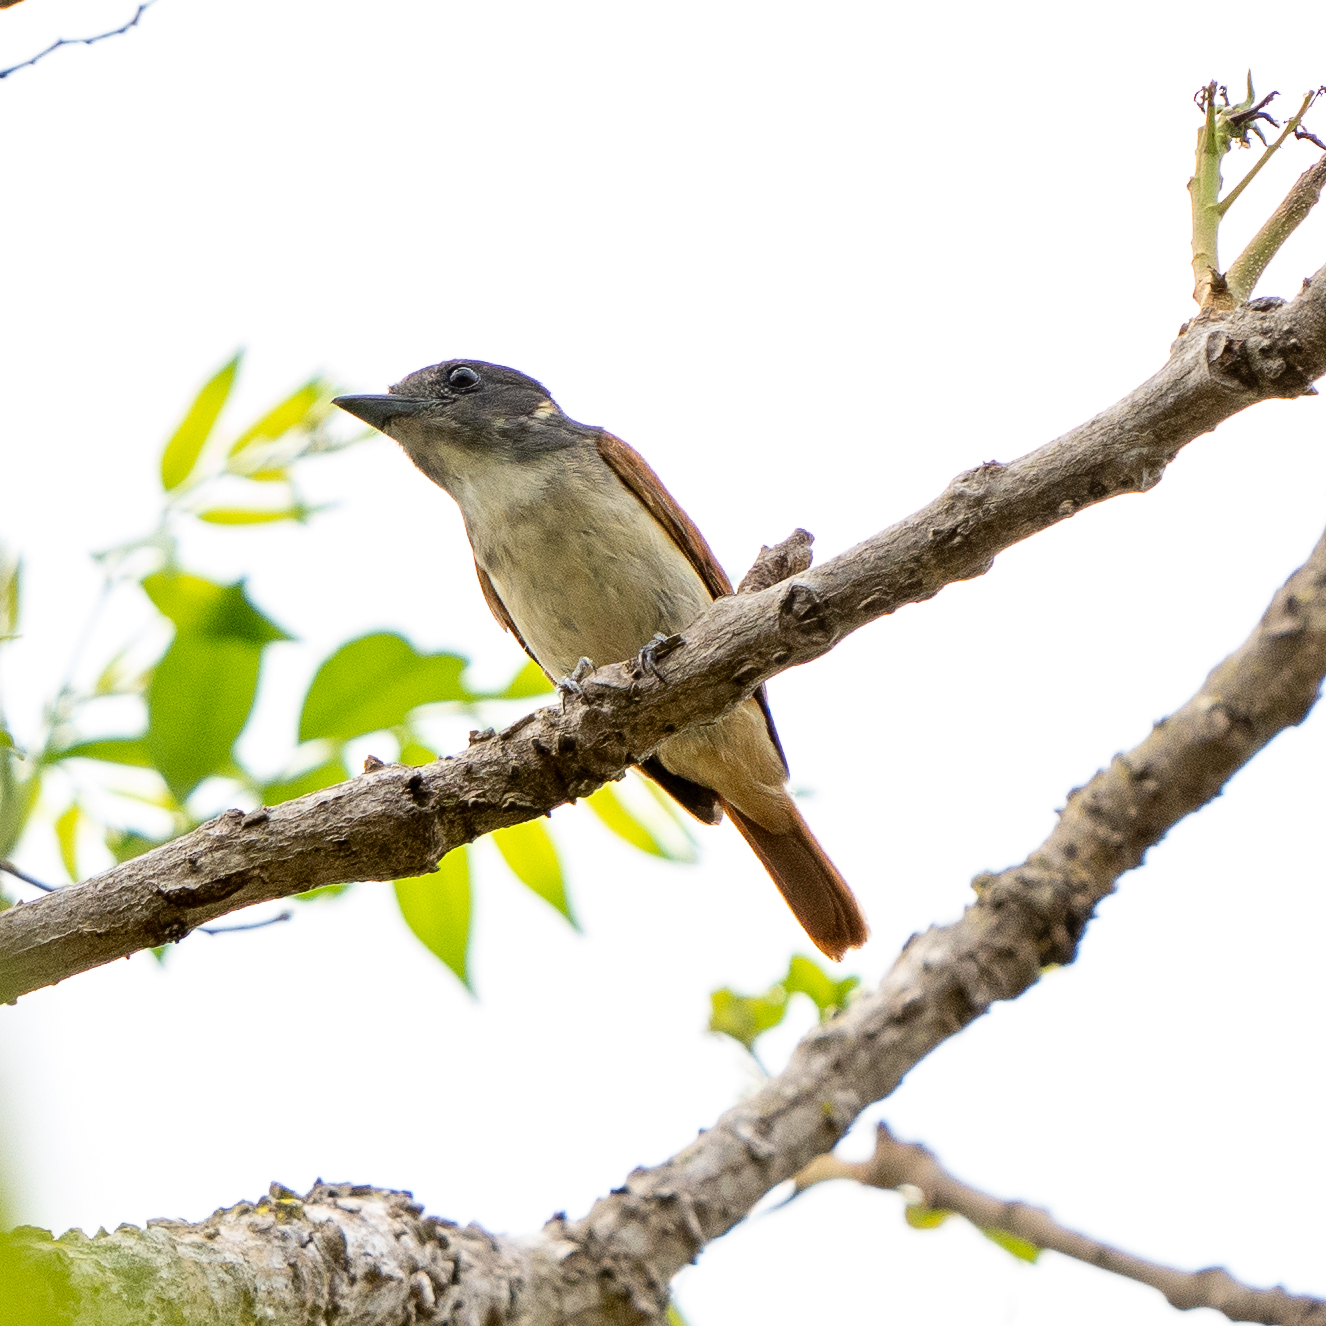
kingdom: Animalia
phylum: Chordata
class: Aves
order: Passeriformes
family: Cotingidae
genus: Pachyramphus
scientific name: Pachyramphus aglaiae
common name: Rose-throated becard
